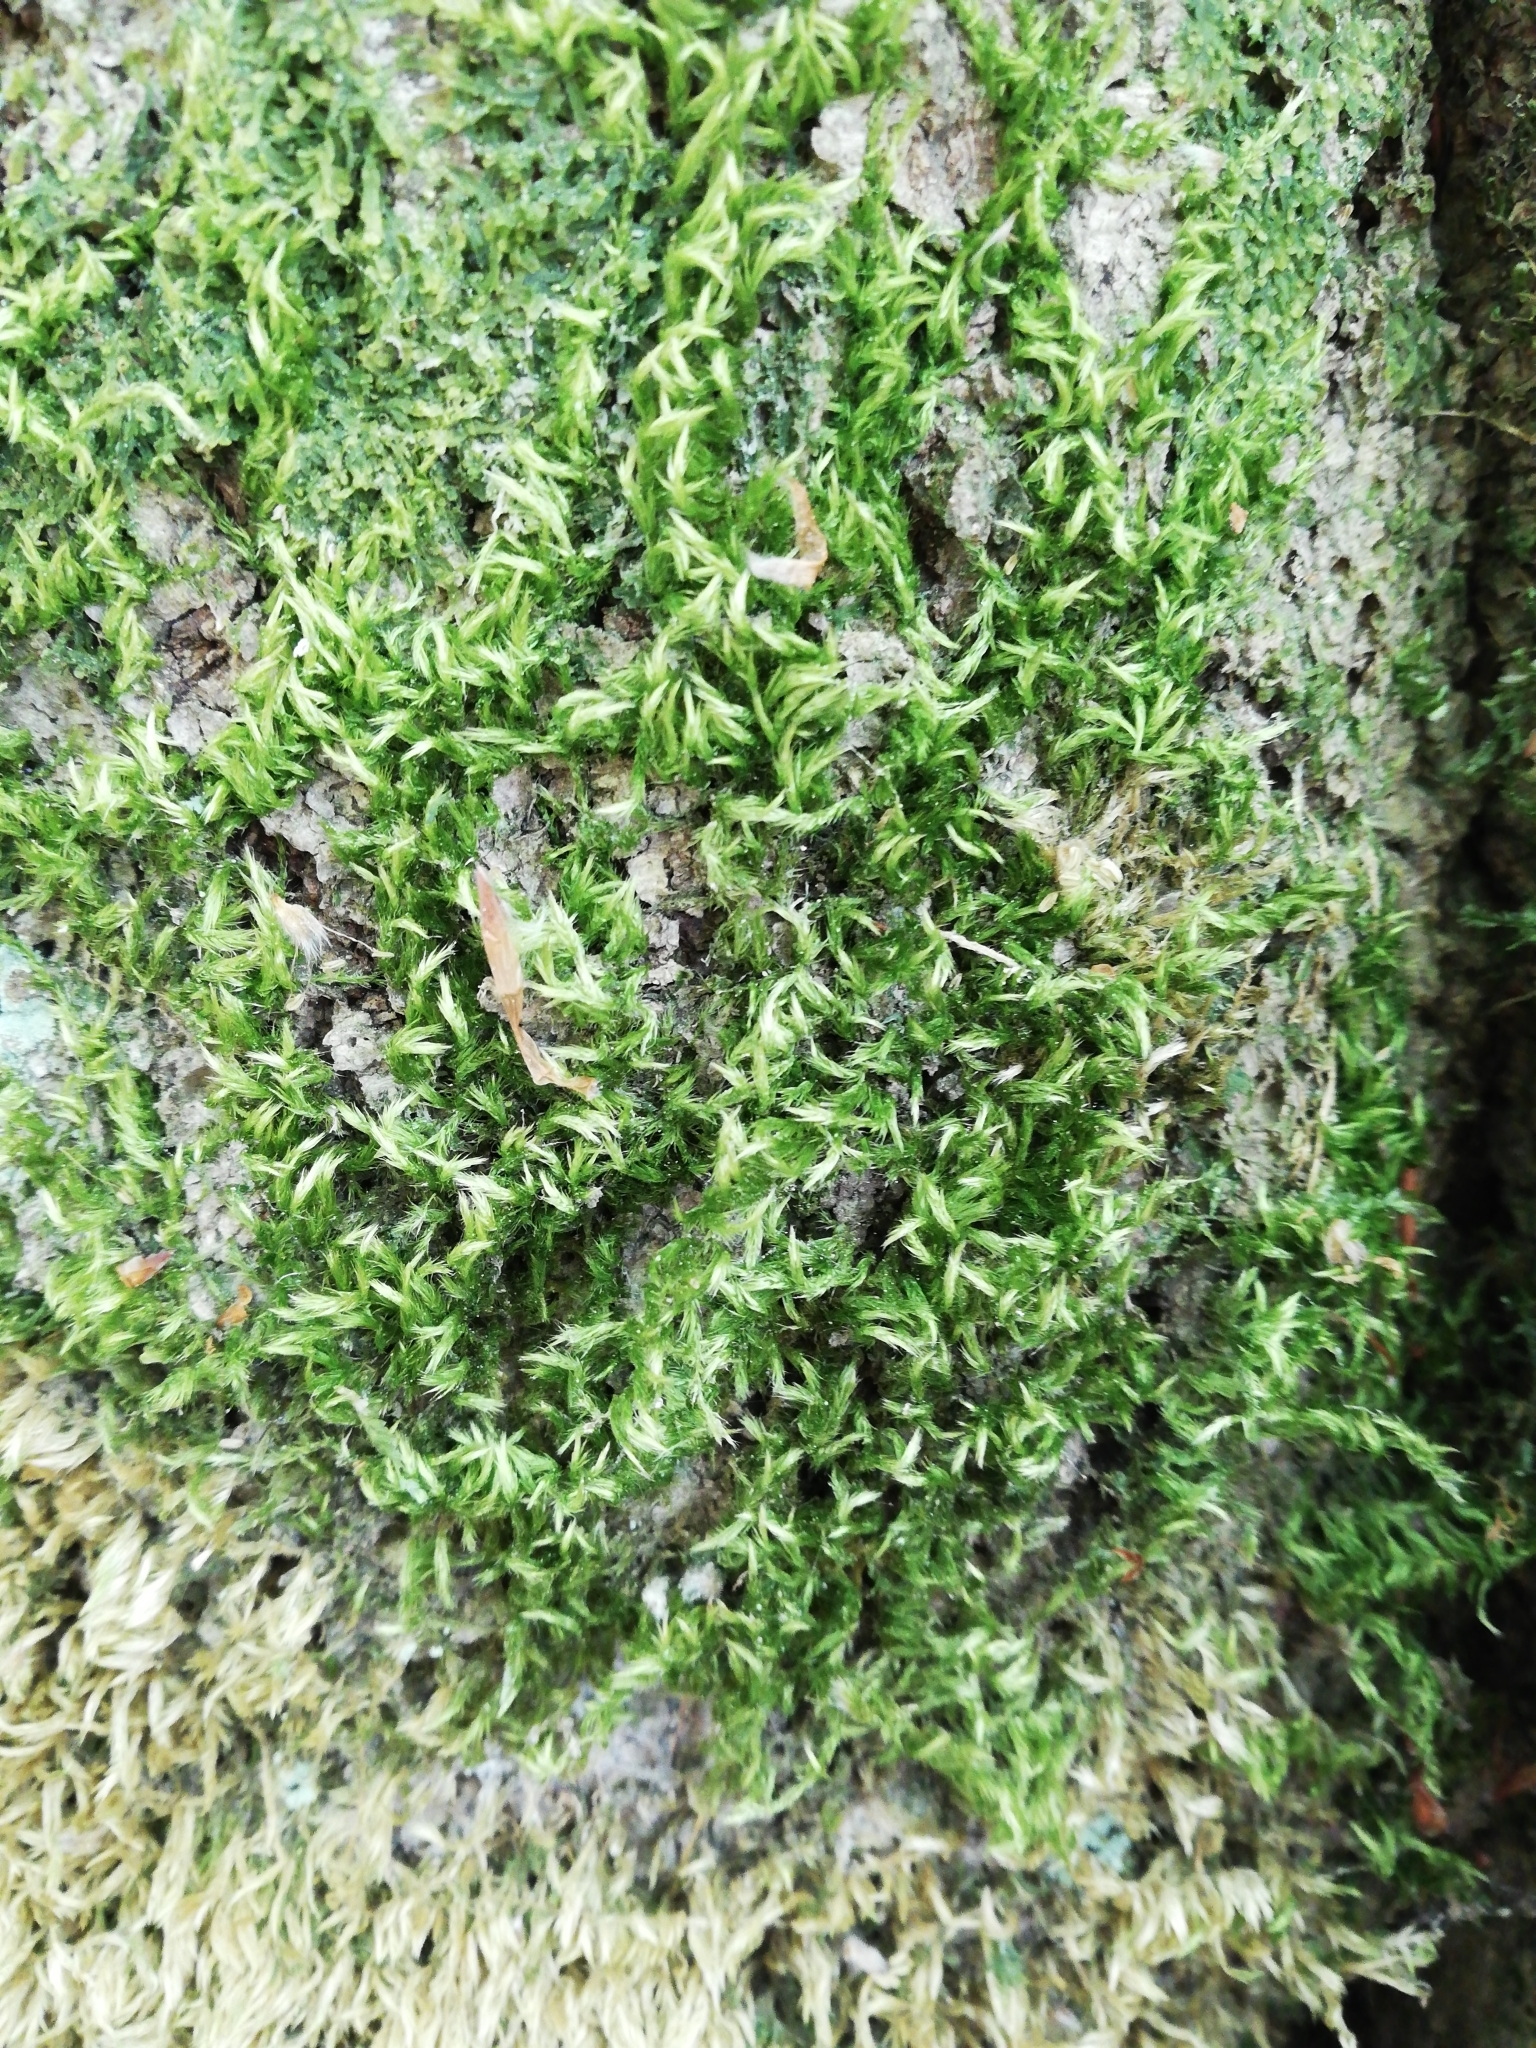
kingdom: Plantae
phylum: Bryophyta
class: Bryopsida
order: Hypnales
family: Brachytheciaceae
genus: Homalothecium
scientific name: Homalothecium sericeum
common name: Silky wall feather-moss
